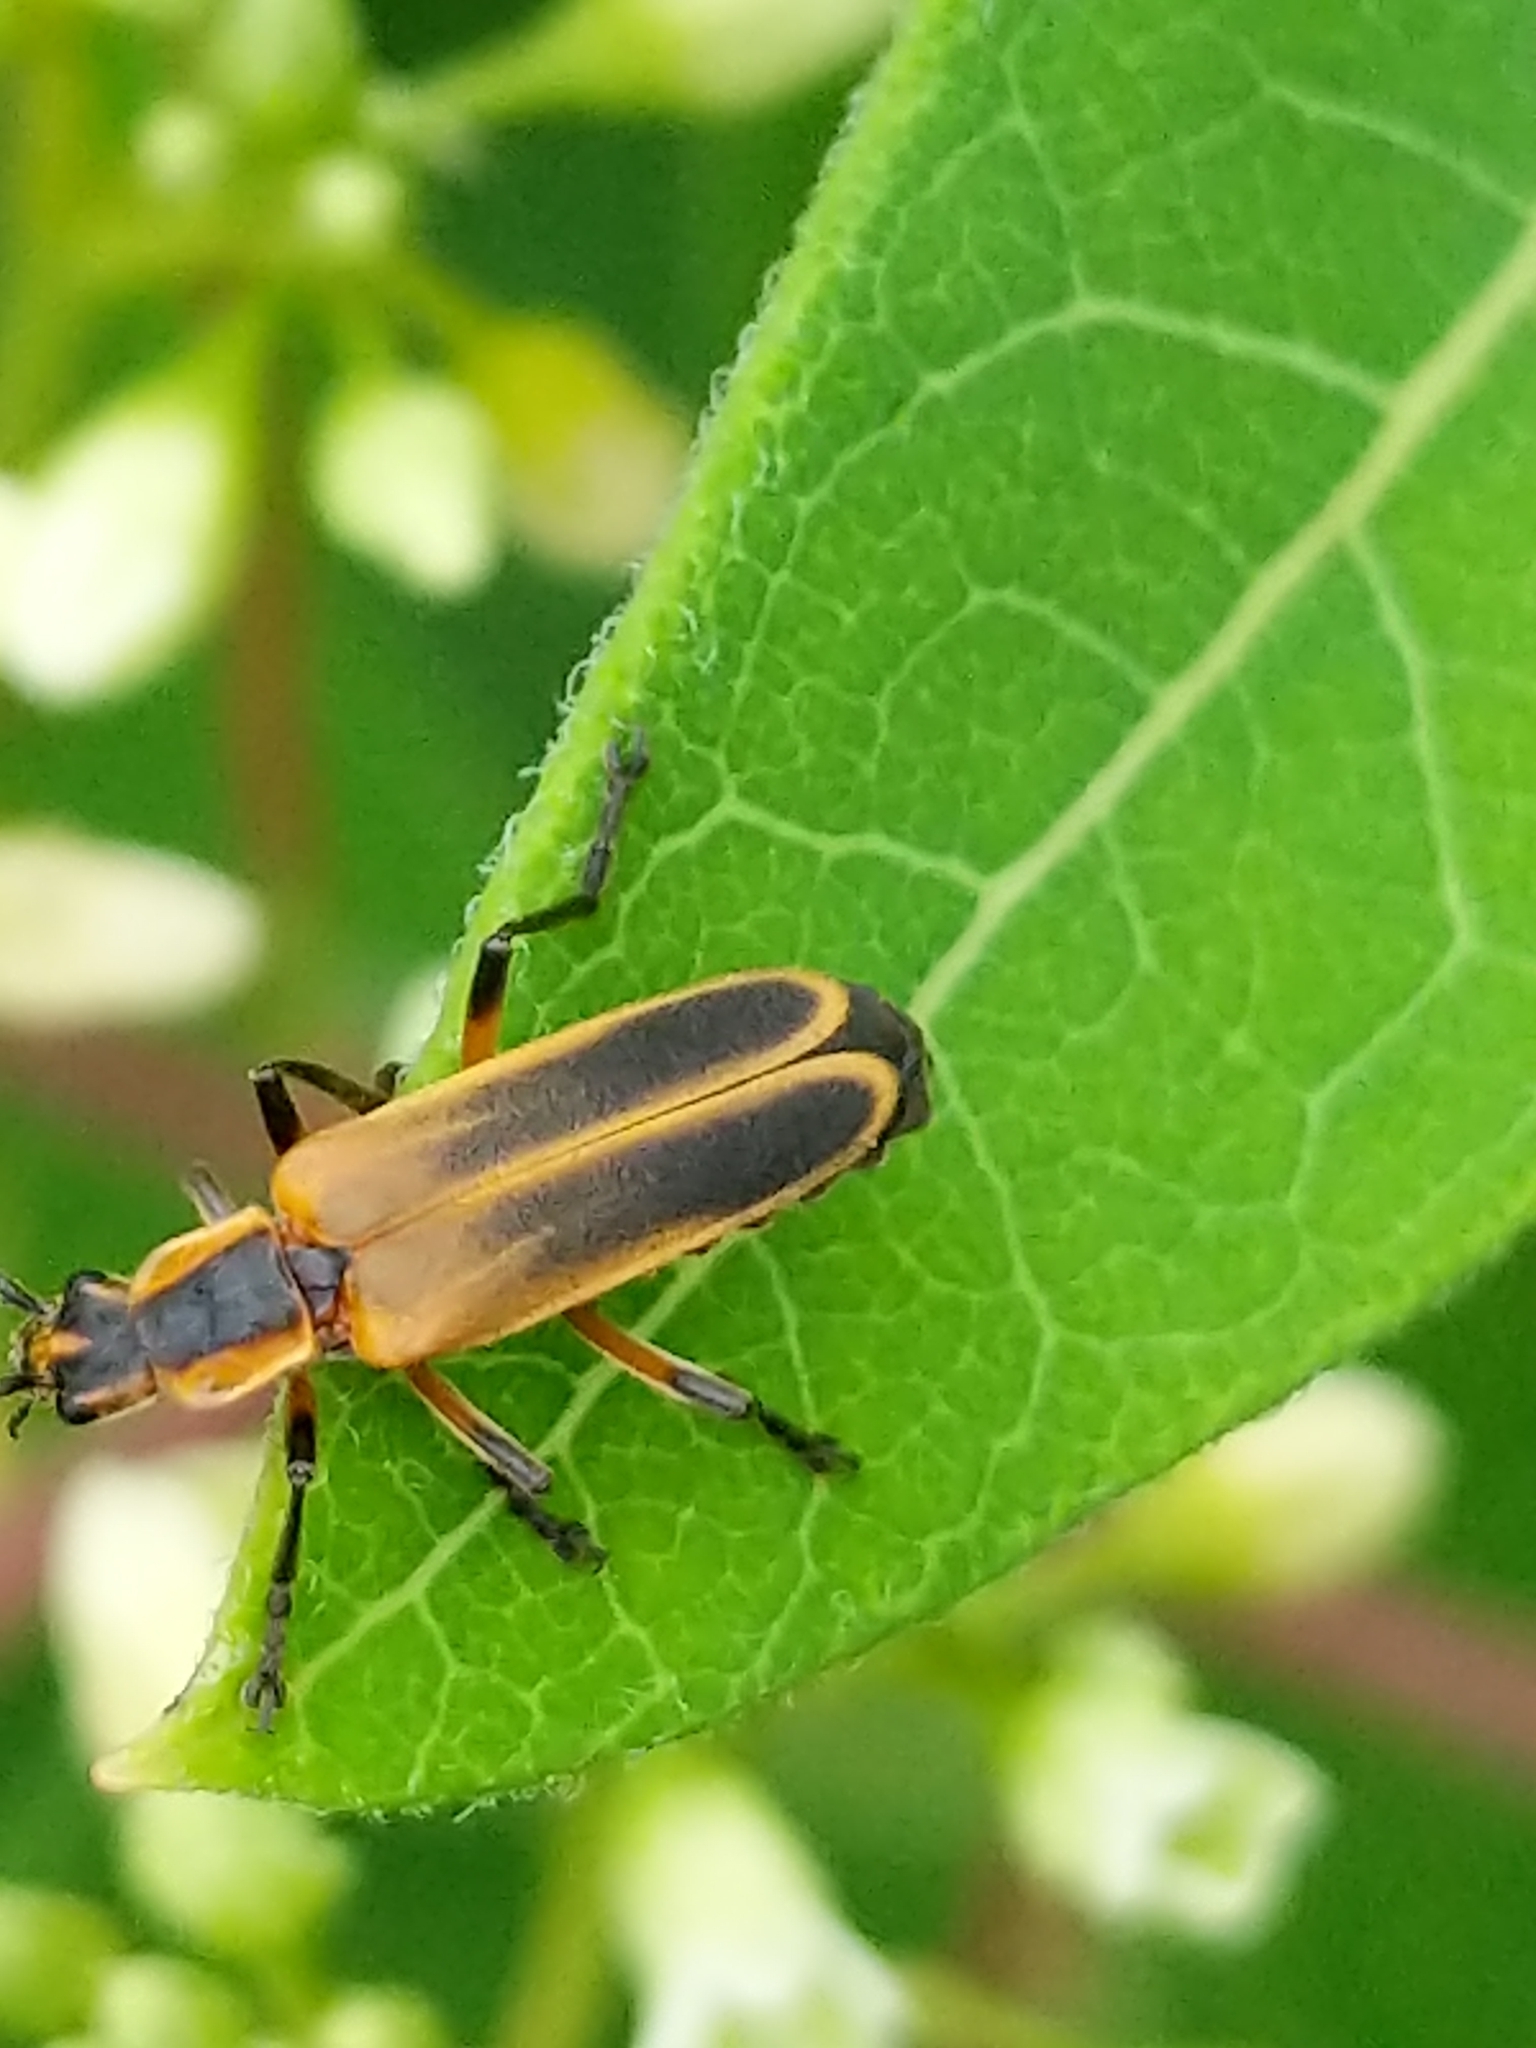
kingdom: Animalia
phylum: Arthropoda
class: Insecta
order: Coleoptera
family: Cantharidae
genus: Chauliognathus
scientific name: Chauliognathus marginatus
